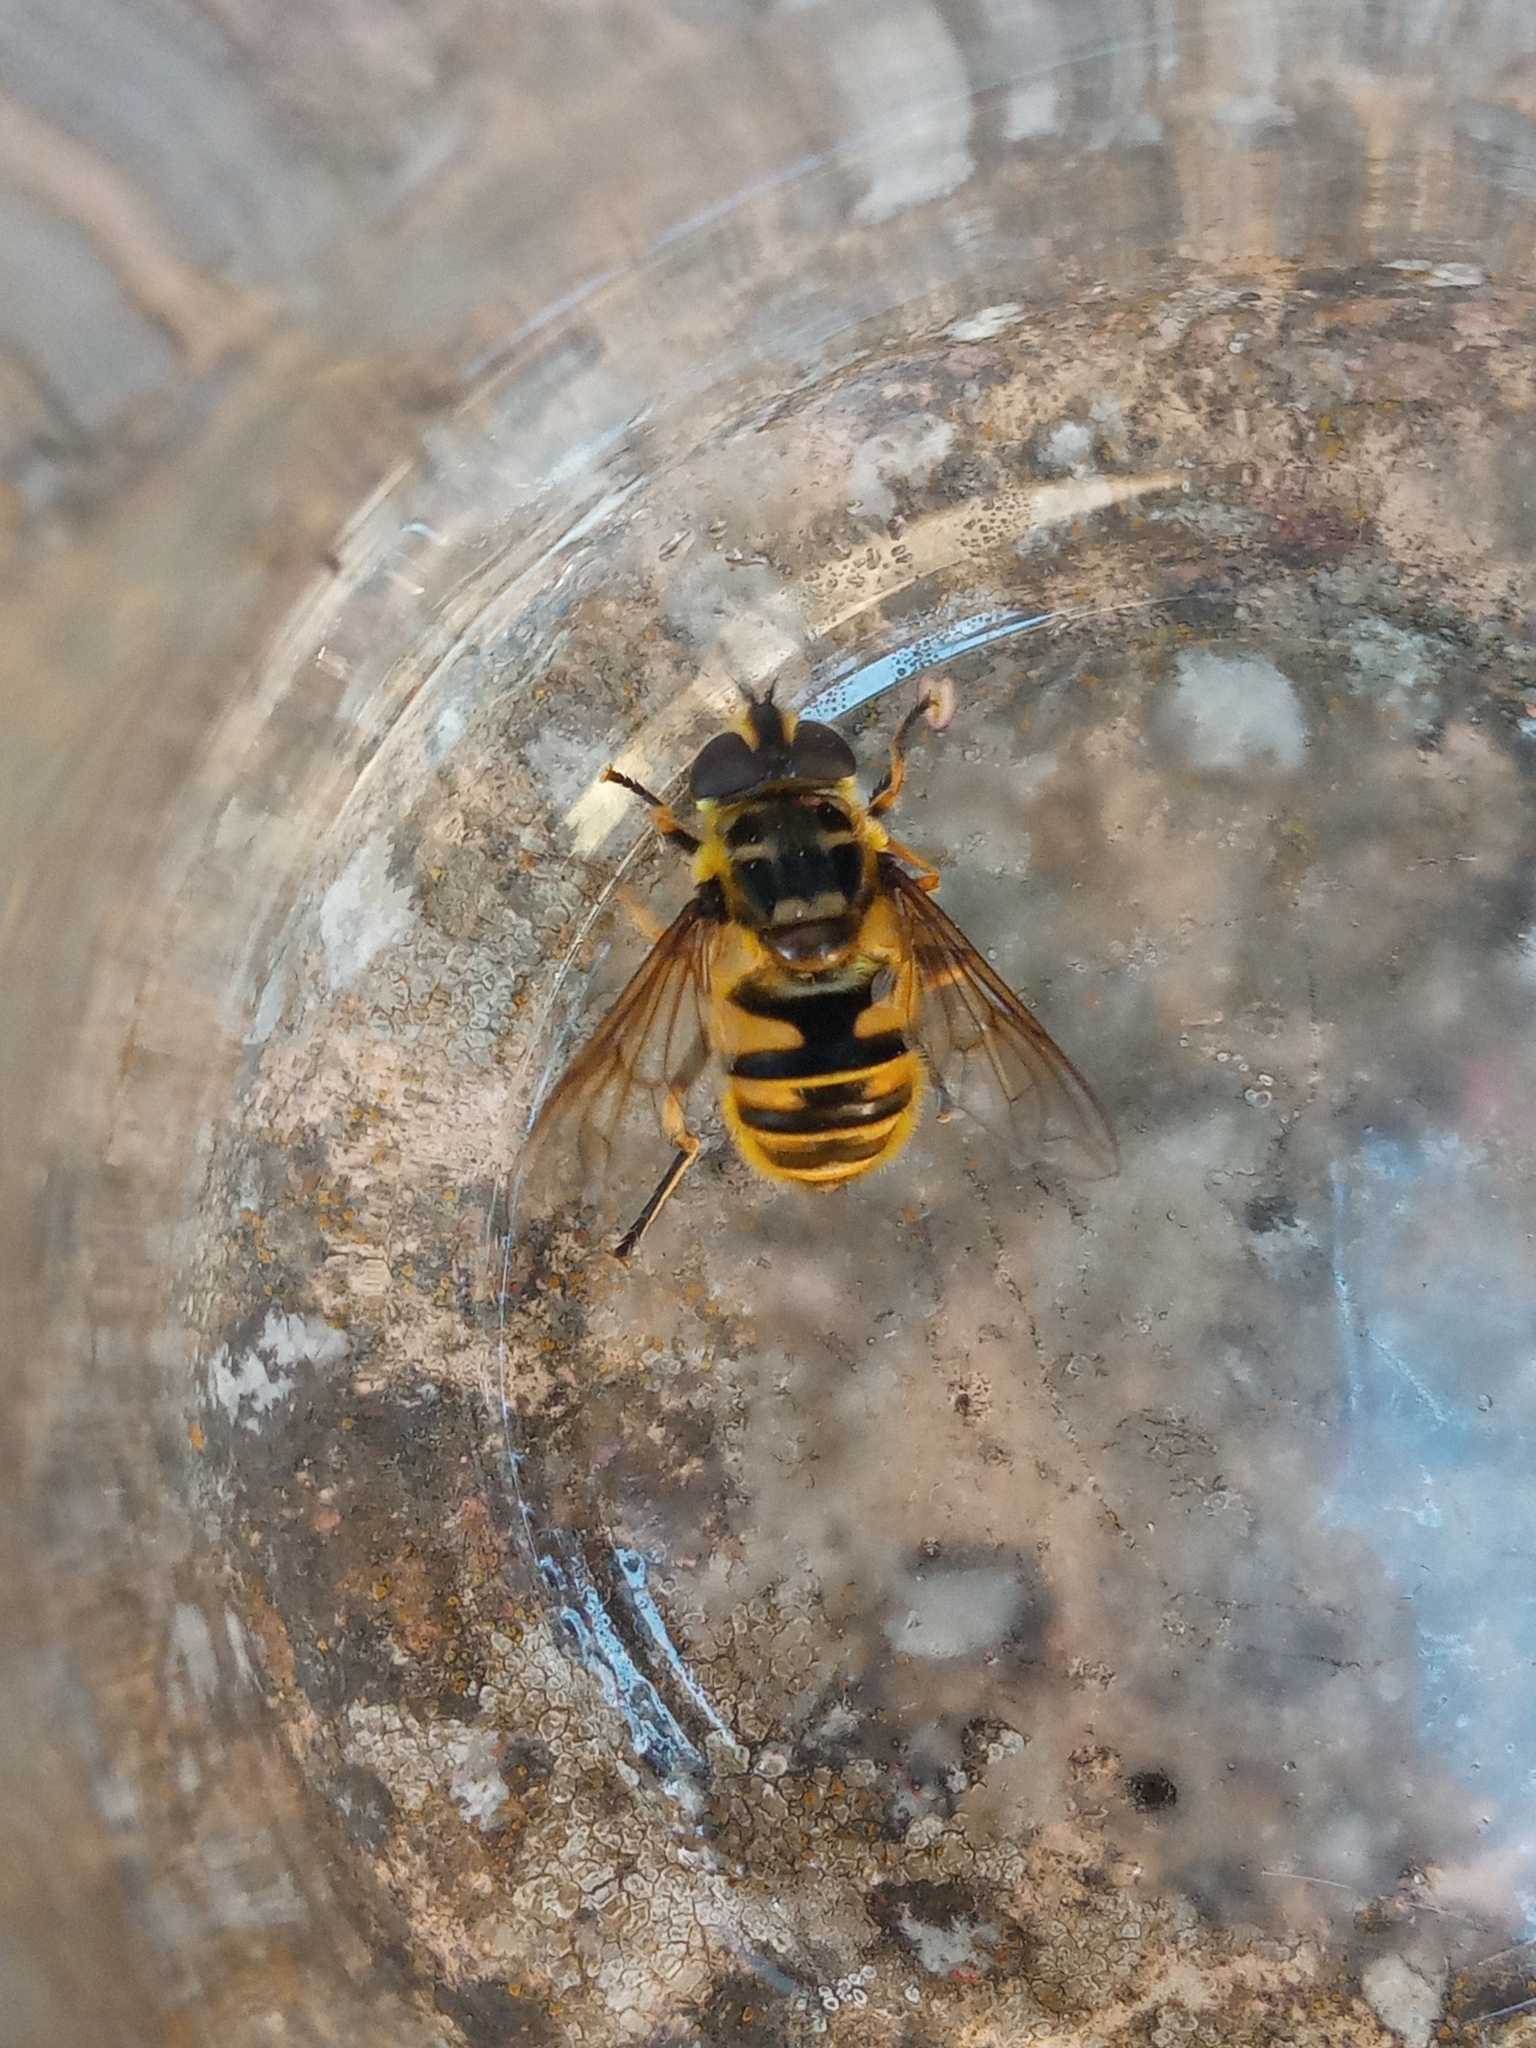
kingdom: Animalia
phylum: Arthropoda
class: Insecta
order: Diptera
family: Syrphidae
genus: Myathropa
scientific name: Myathropa florea
